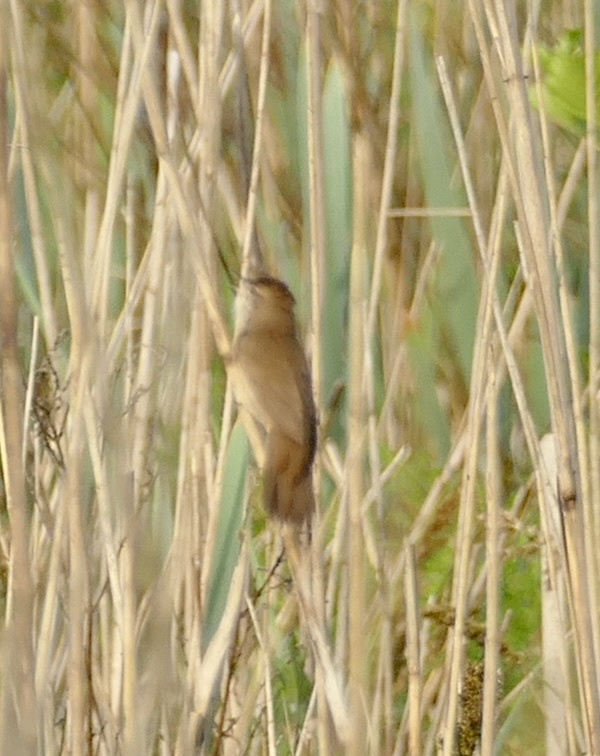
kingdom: Animalia
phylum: Chordata
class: Aves
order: Passeriformes
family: Locustellidae
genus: Locustella
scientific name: Locustella luscinioides
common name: Savi's warbler
